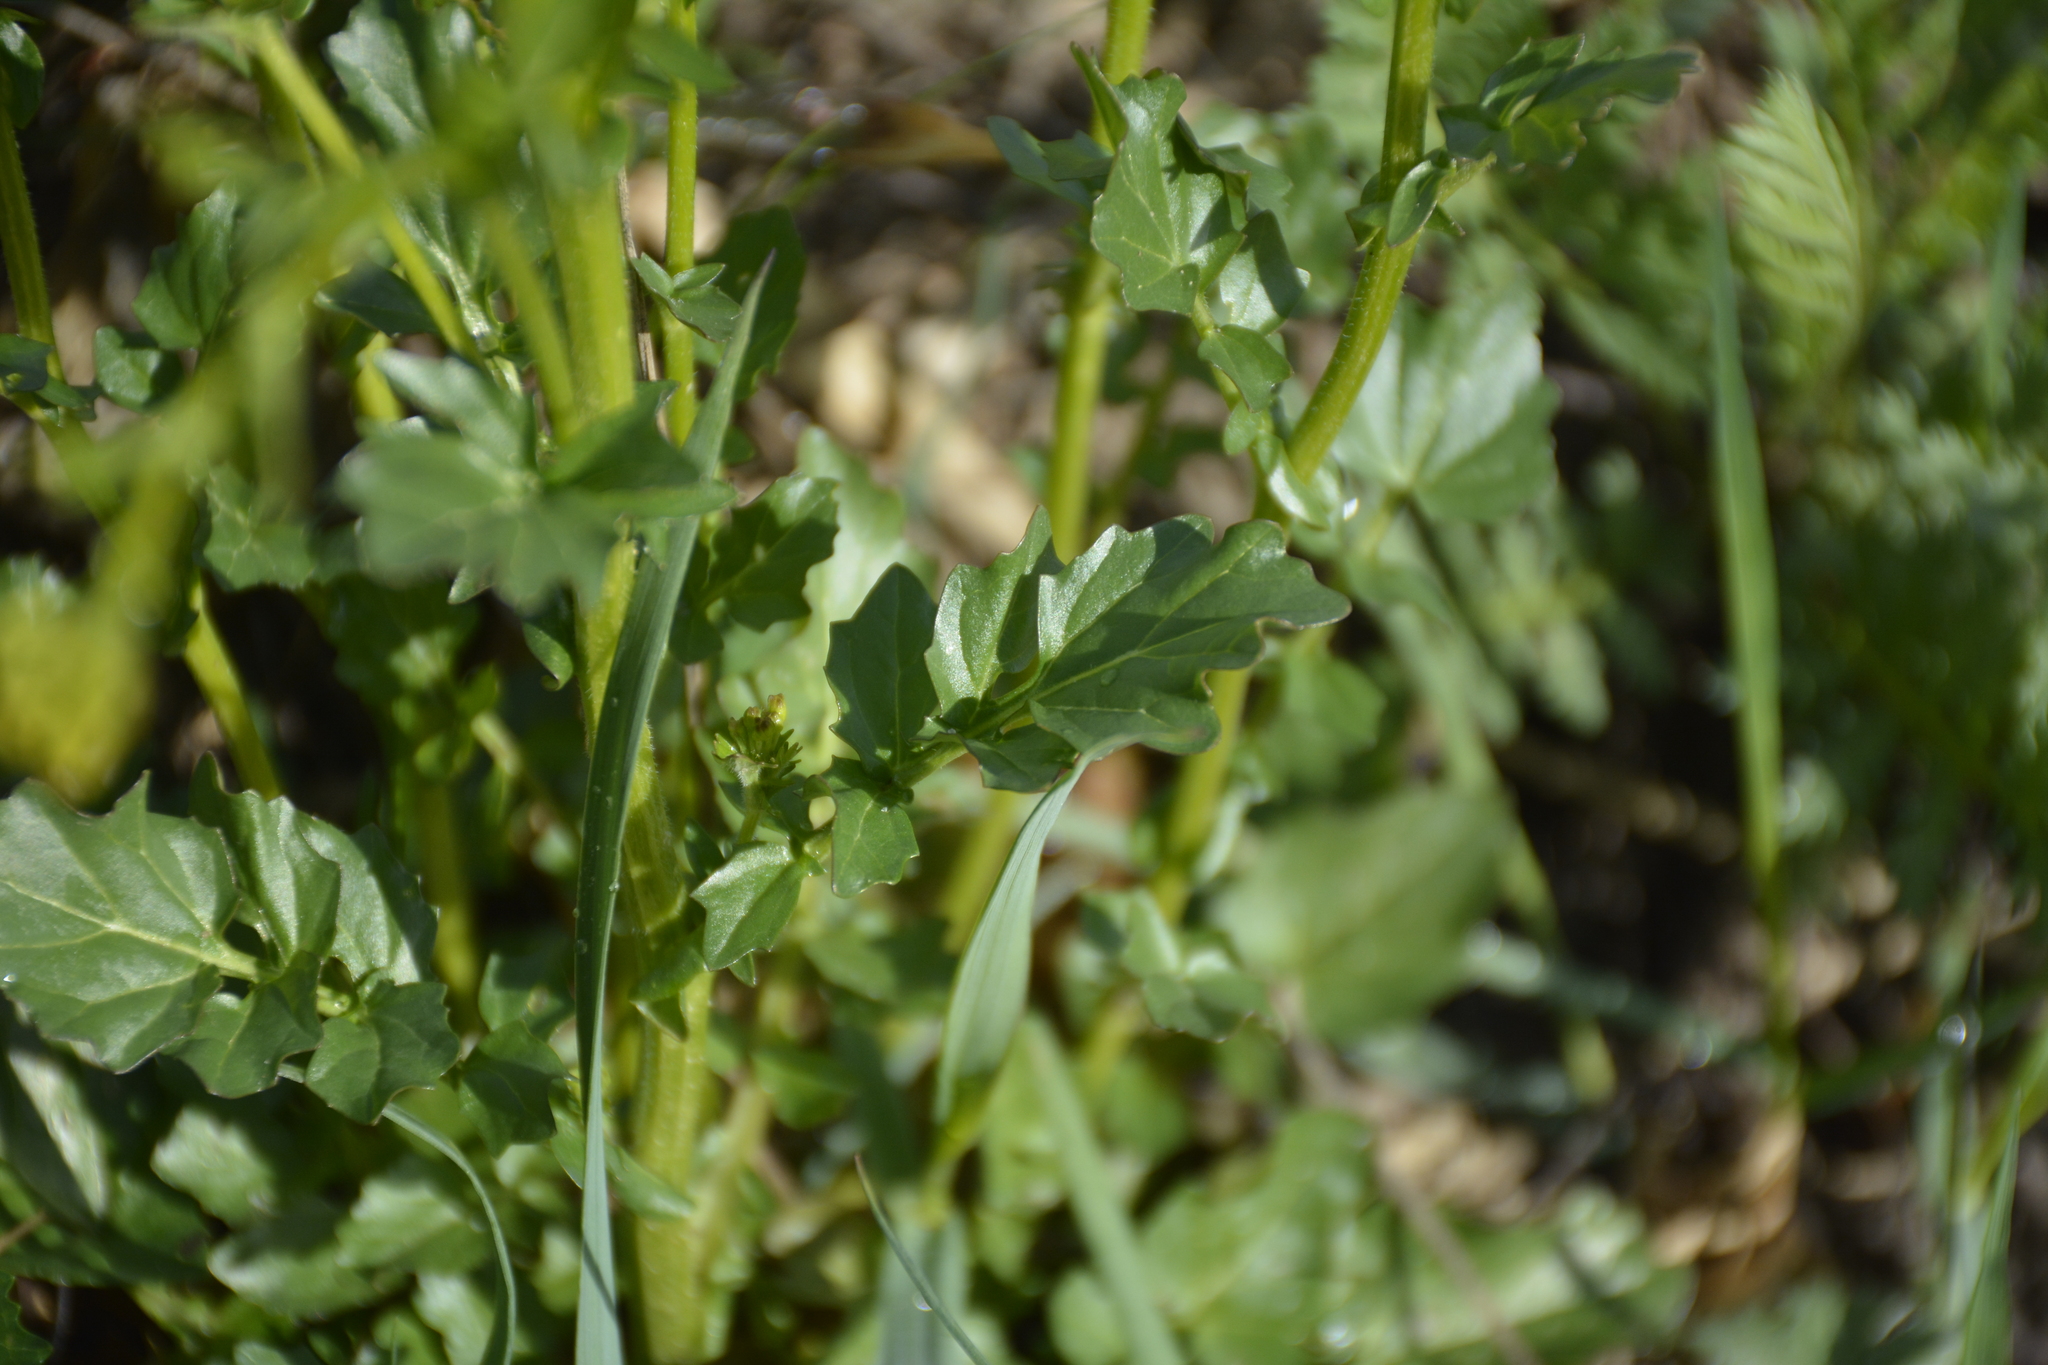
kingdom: Plantae
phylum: Tracheophyta
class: Magnoliopsida
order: Brassicales
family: Brassicaceae
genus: Barbarea
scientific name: Barbarea vulgaris
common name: Cressy-greens
